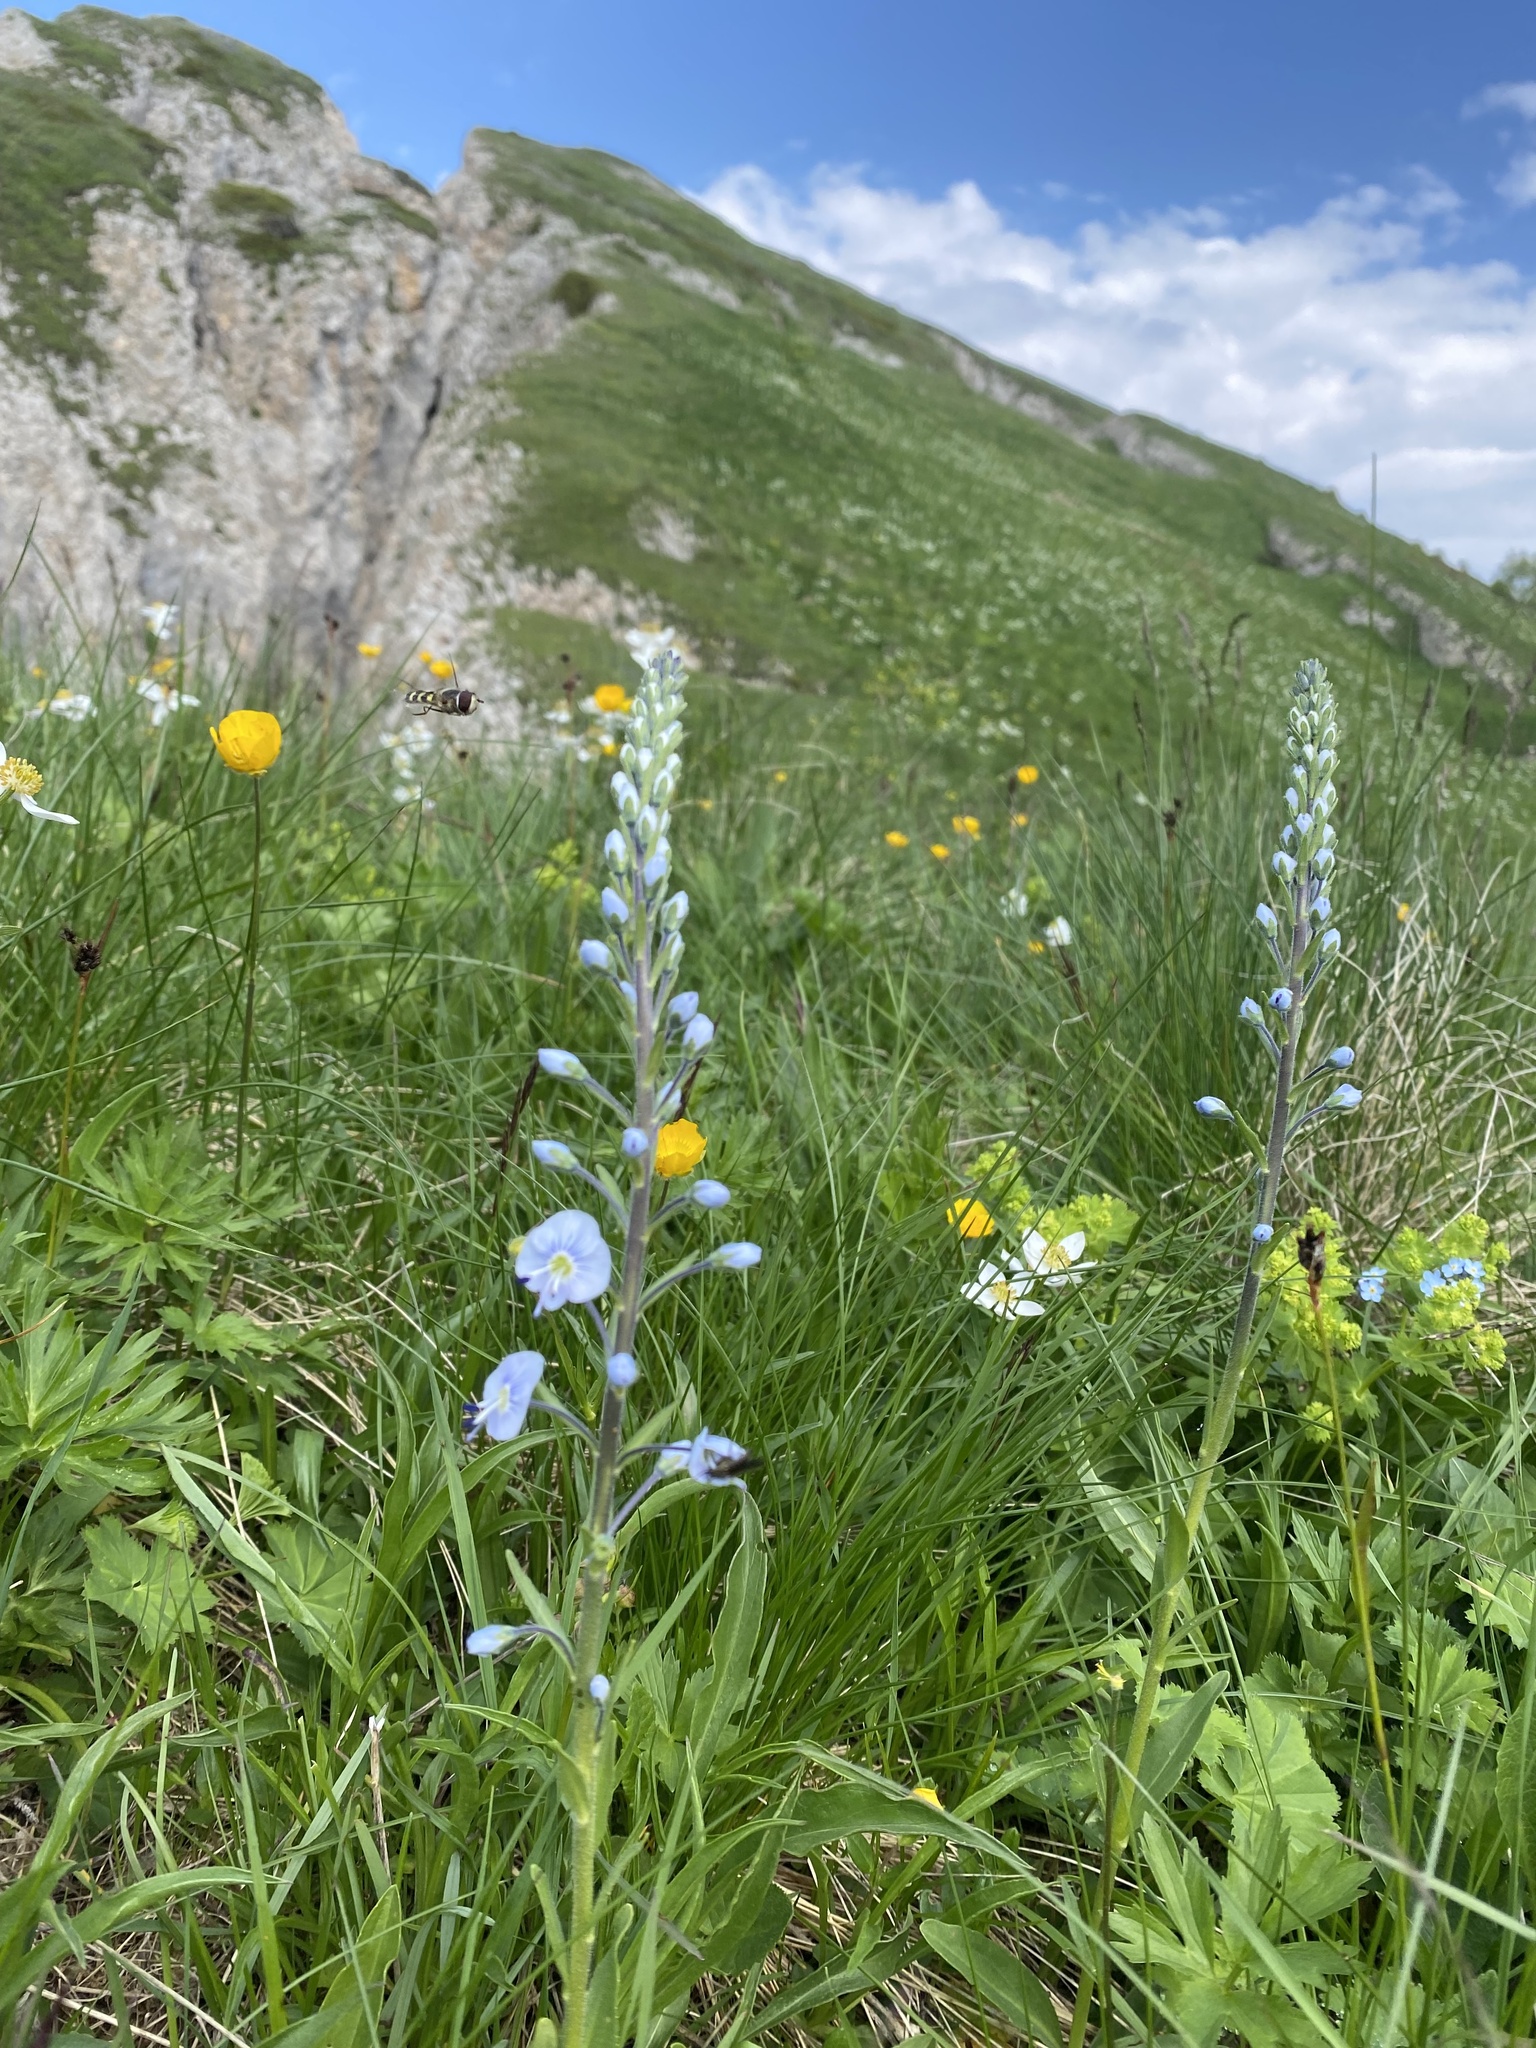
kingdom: Plantae
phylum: Tracheophyta
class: Magnoliopsida
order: Lamiales
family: Plantaginaceae
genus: Veronica
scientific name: Veronica gentianoides
